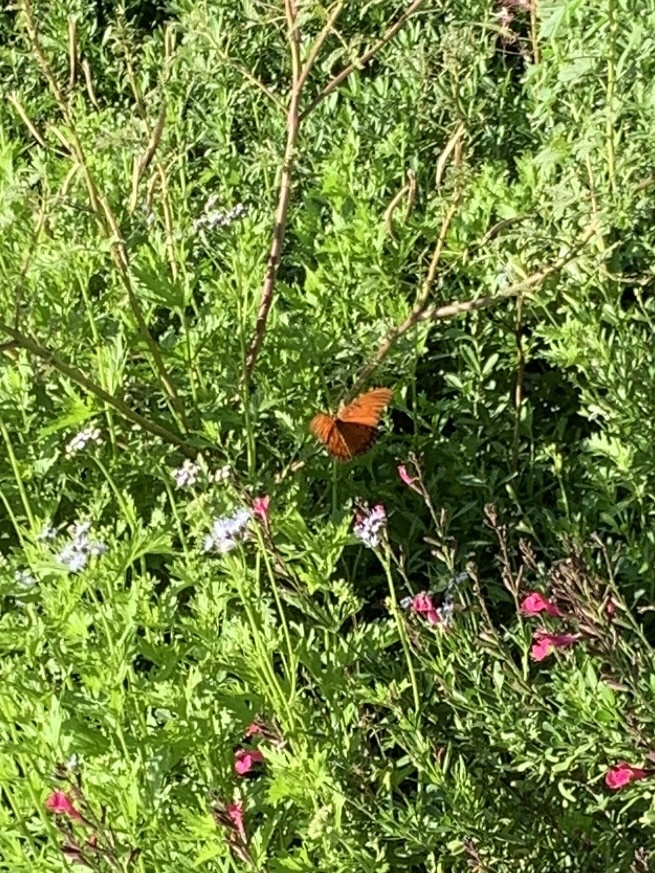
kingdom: Animalia
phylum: Arthropoda
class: Insecta
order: Lepidoptera
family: Nymphalidae
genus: Dione
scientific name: Dione vanillae
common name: Gulf fritillary
